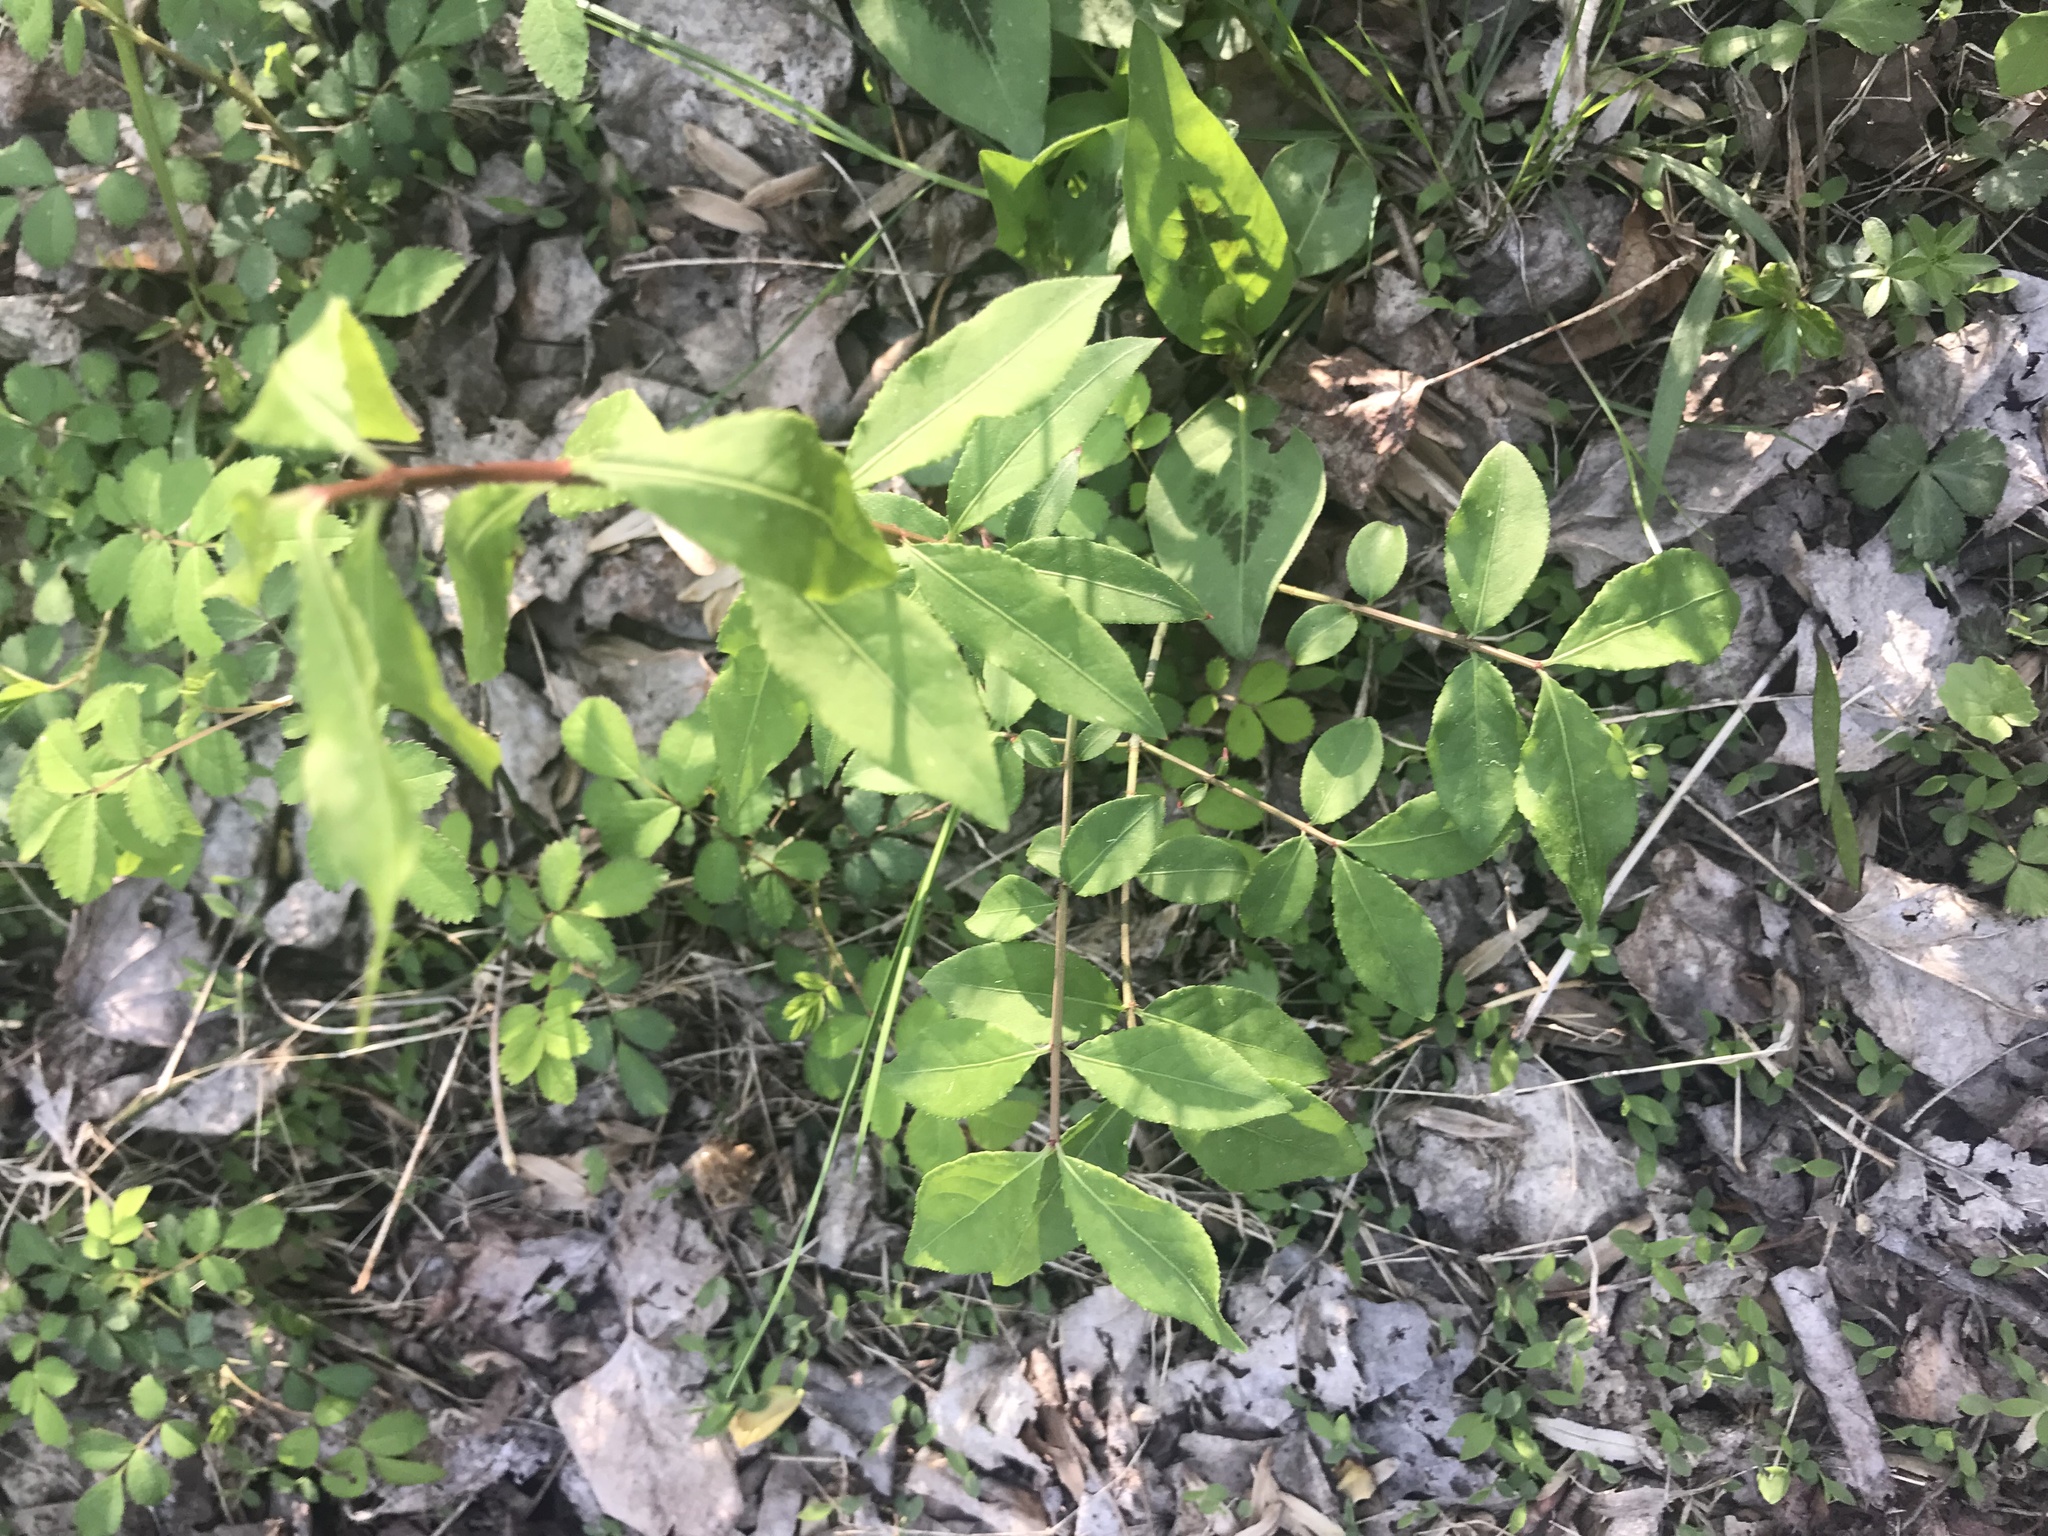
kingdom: Plantae
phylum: Tracheophyta
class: Magnoliopsida
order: Celastrales
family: Celastraceae
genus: Euonymus
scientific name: Euonymus alatus
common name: Winged euonymus
